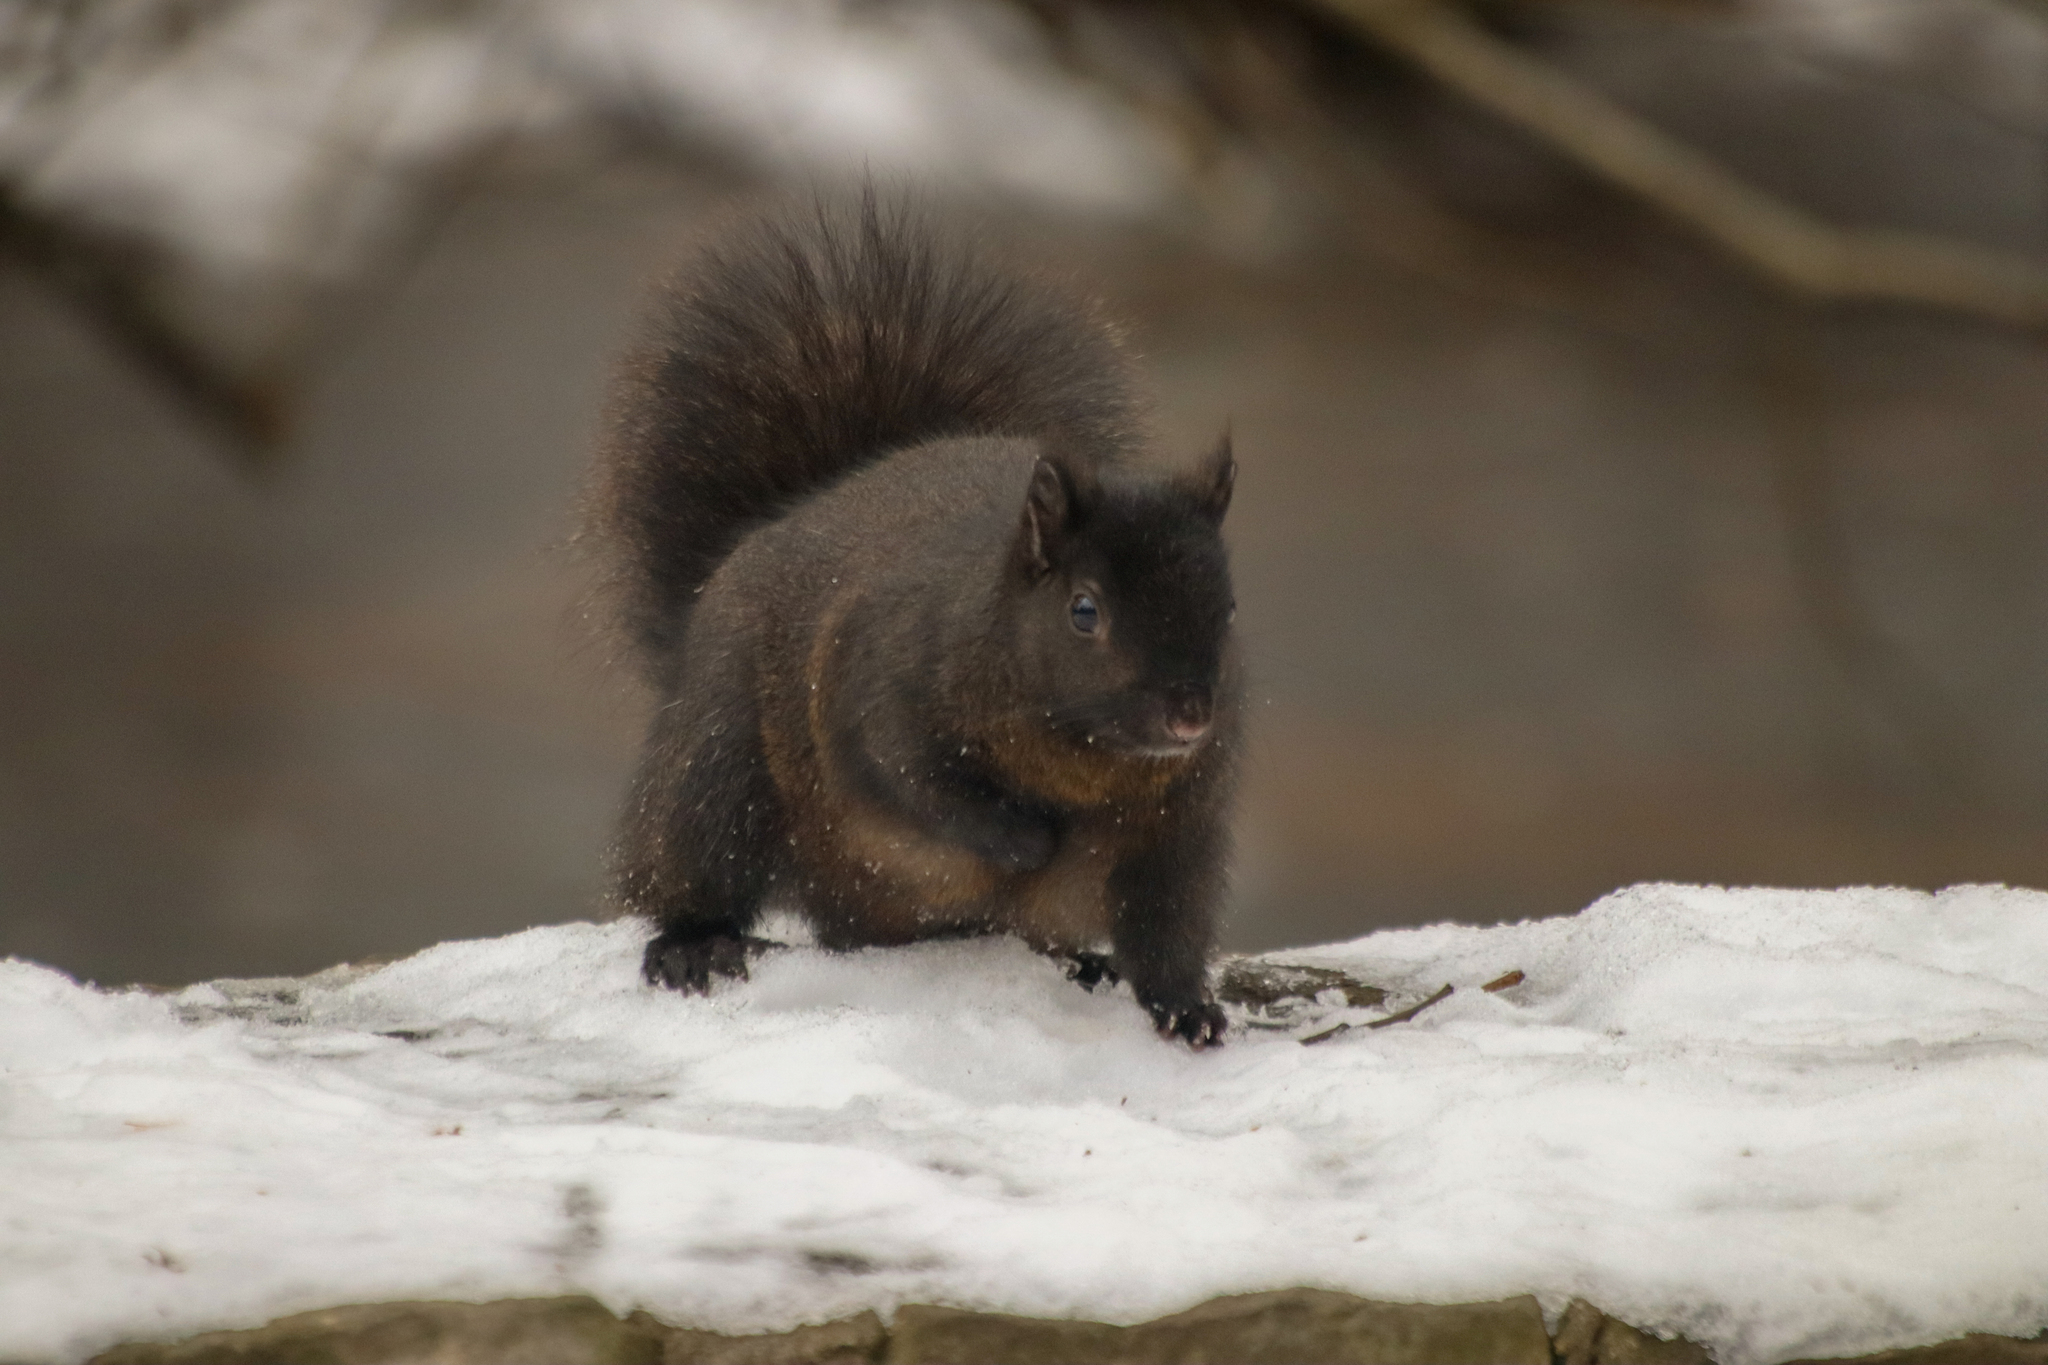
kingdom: Animalia
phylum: Chordata
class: Mammalia
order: Rodentia
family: Sciuridae
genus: Sciurus
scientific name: Sciurus carolinensis
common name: Eastern gray squirrel
